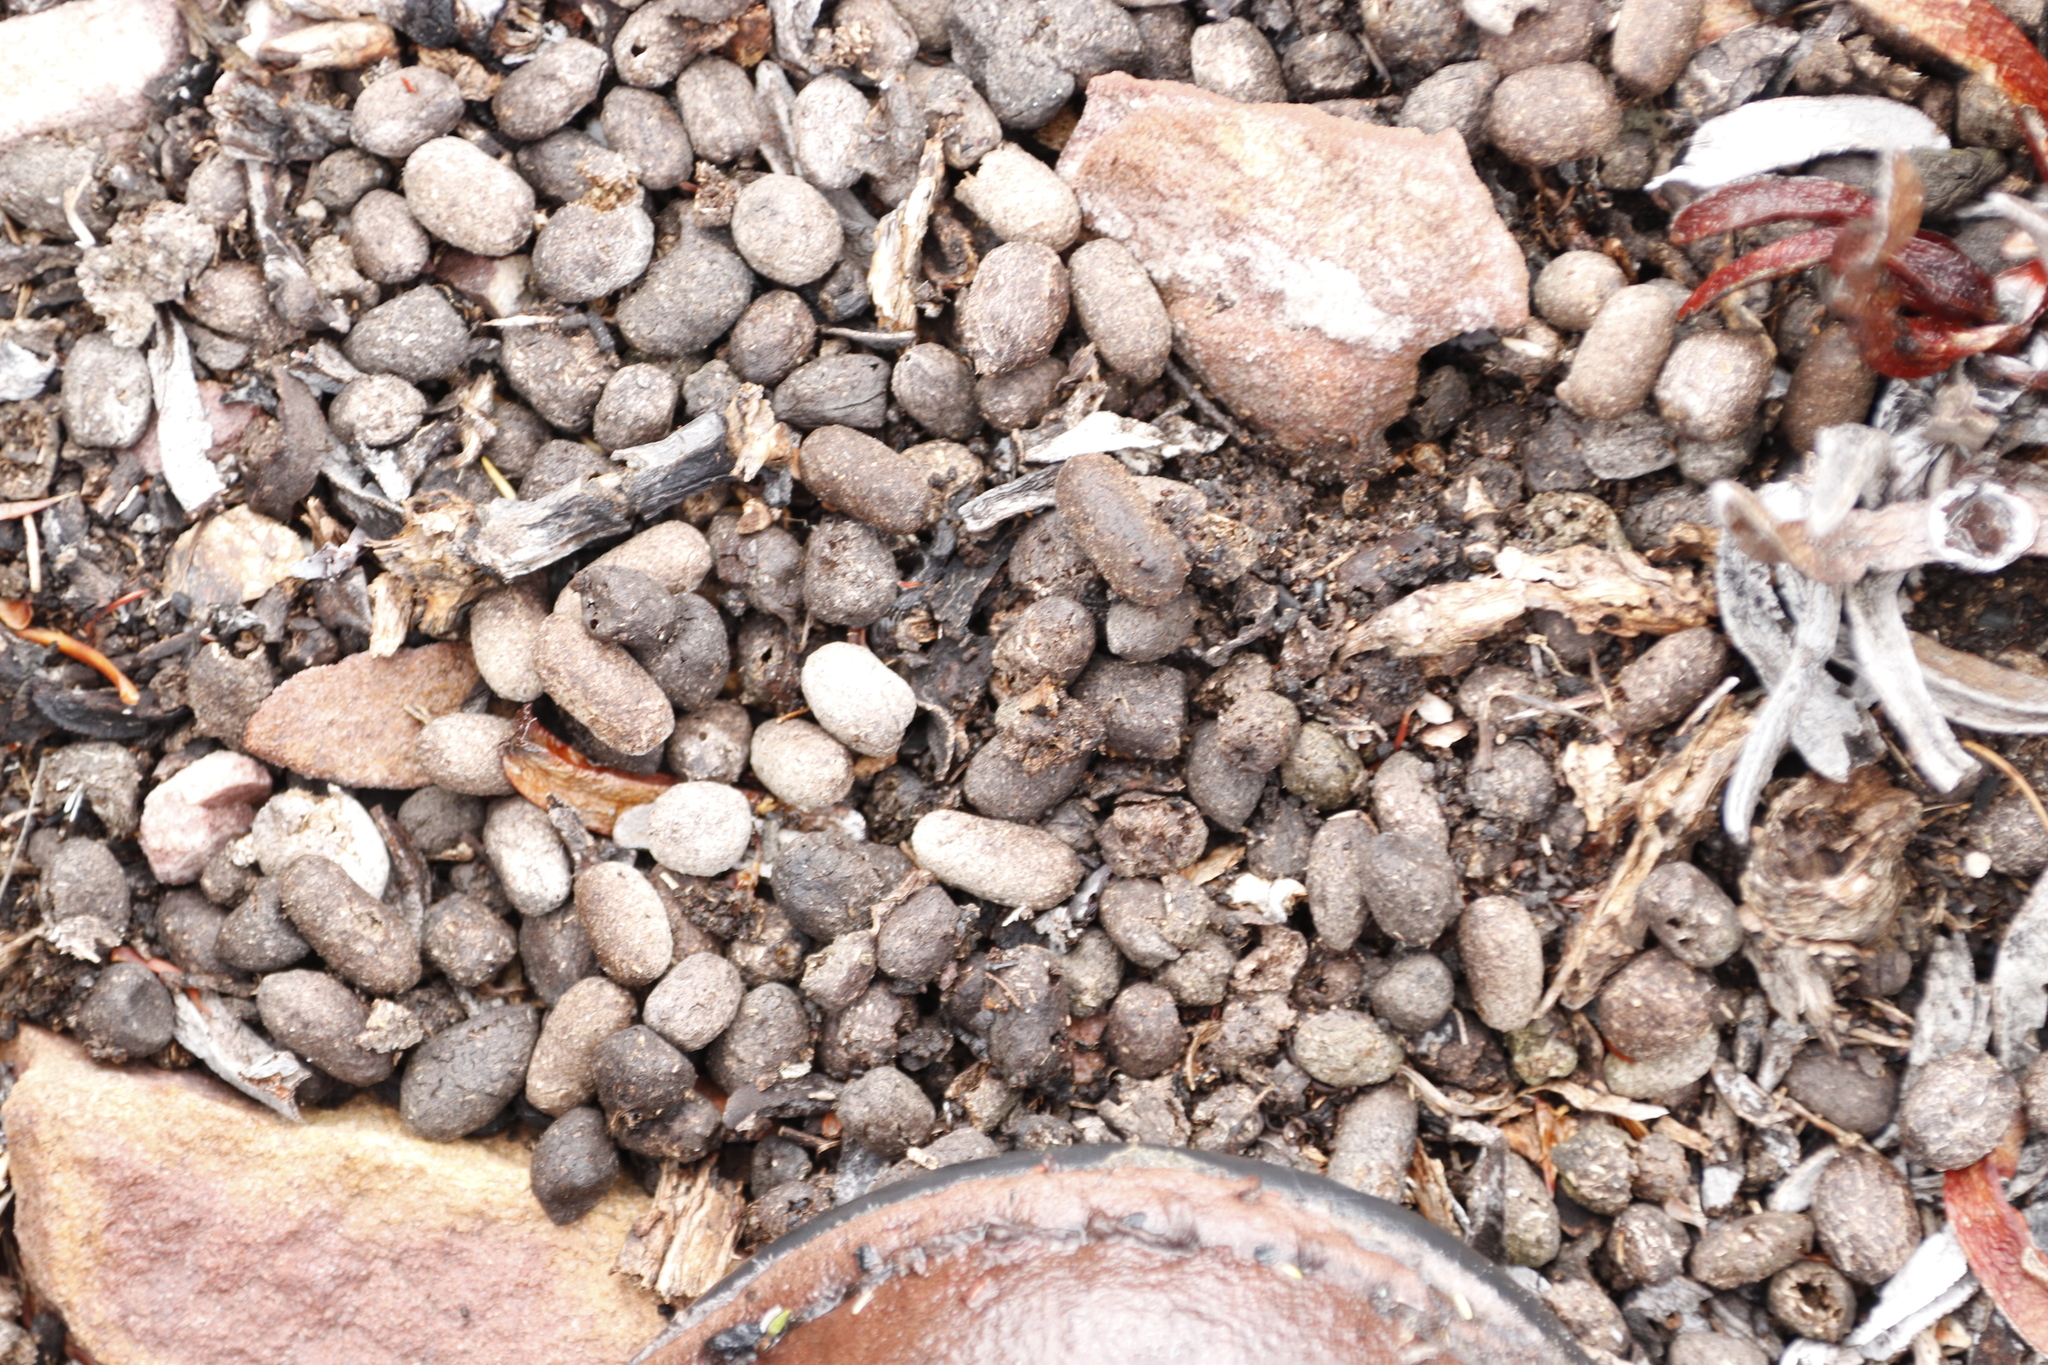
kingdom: Animalia
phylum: Chordata
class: Mammalia
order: Artiodactyla
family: Bovidae
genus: Oreotragus
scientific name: Oreotragus oreotragus
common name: Klipspringer
